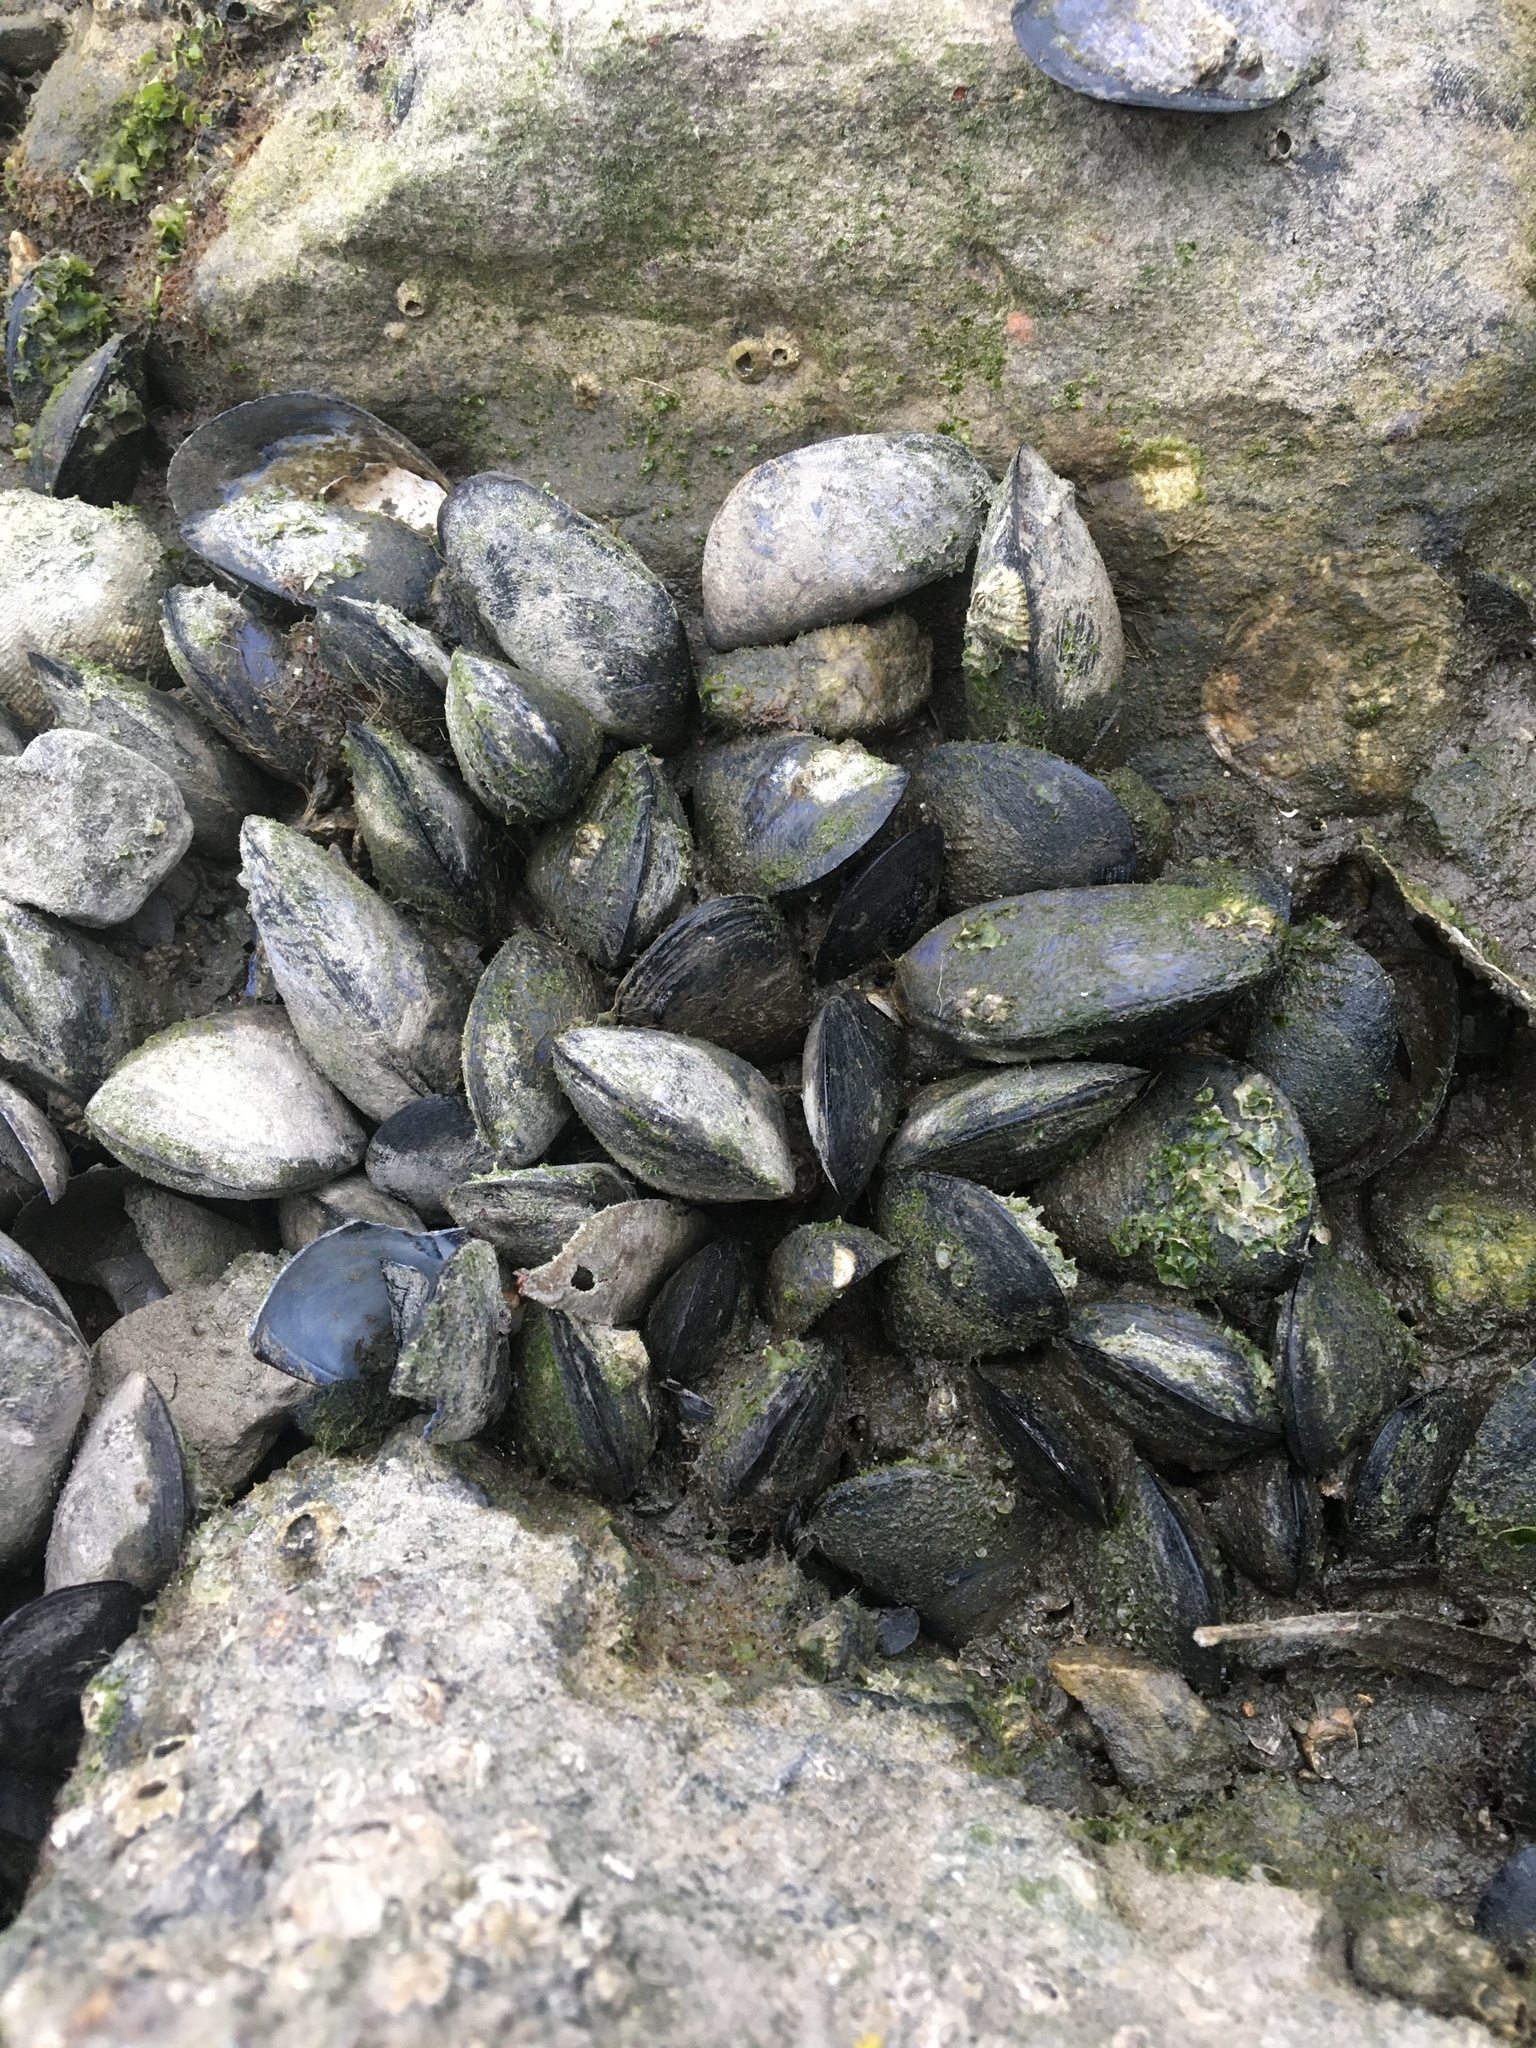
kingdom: Animalia
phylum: Mollusca
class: Bivalvia
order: Mytilida
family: Mytilidae
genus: Mytilus
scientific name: Mytilus
